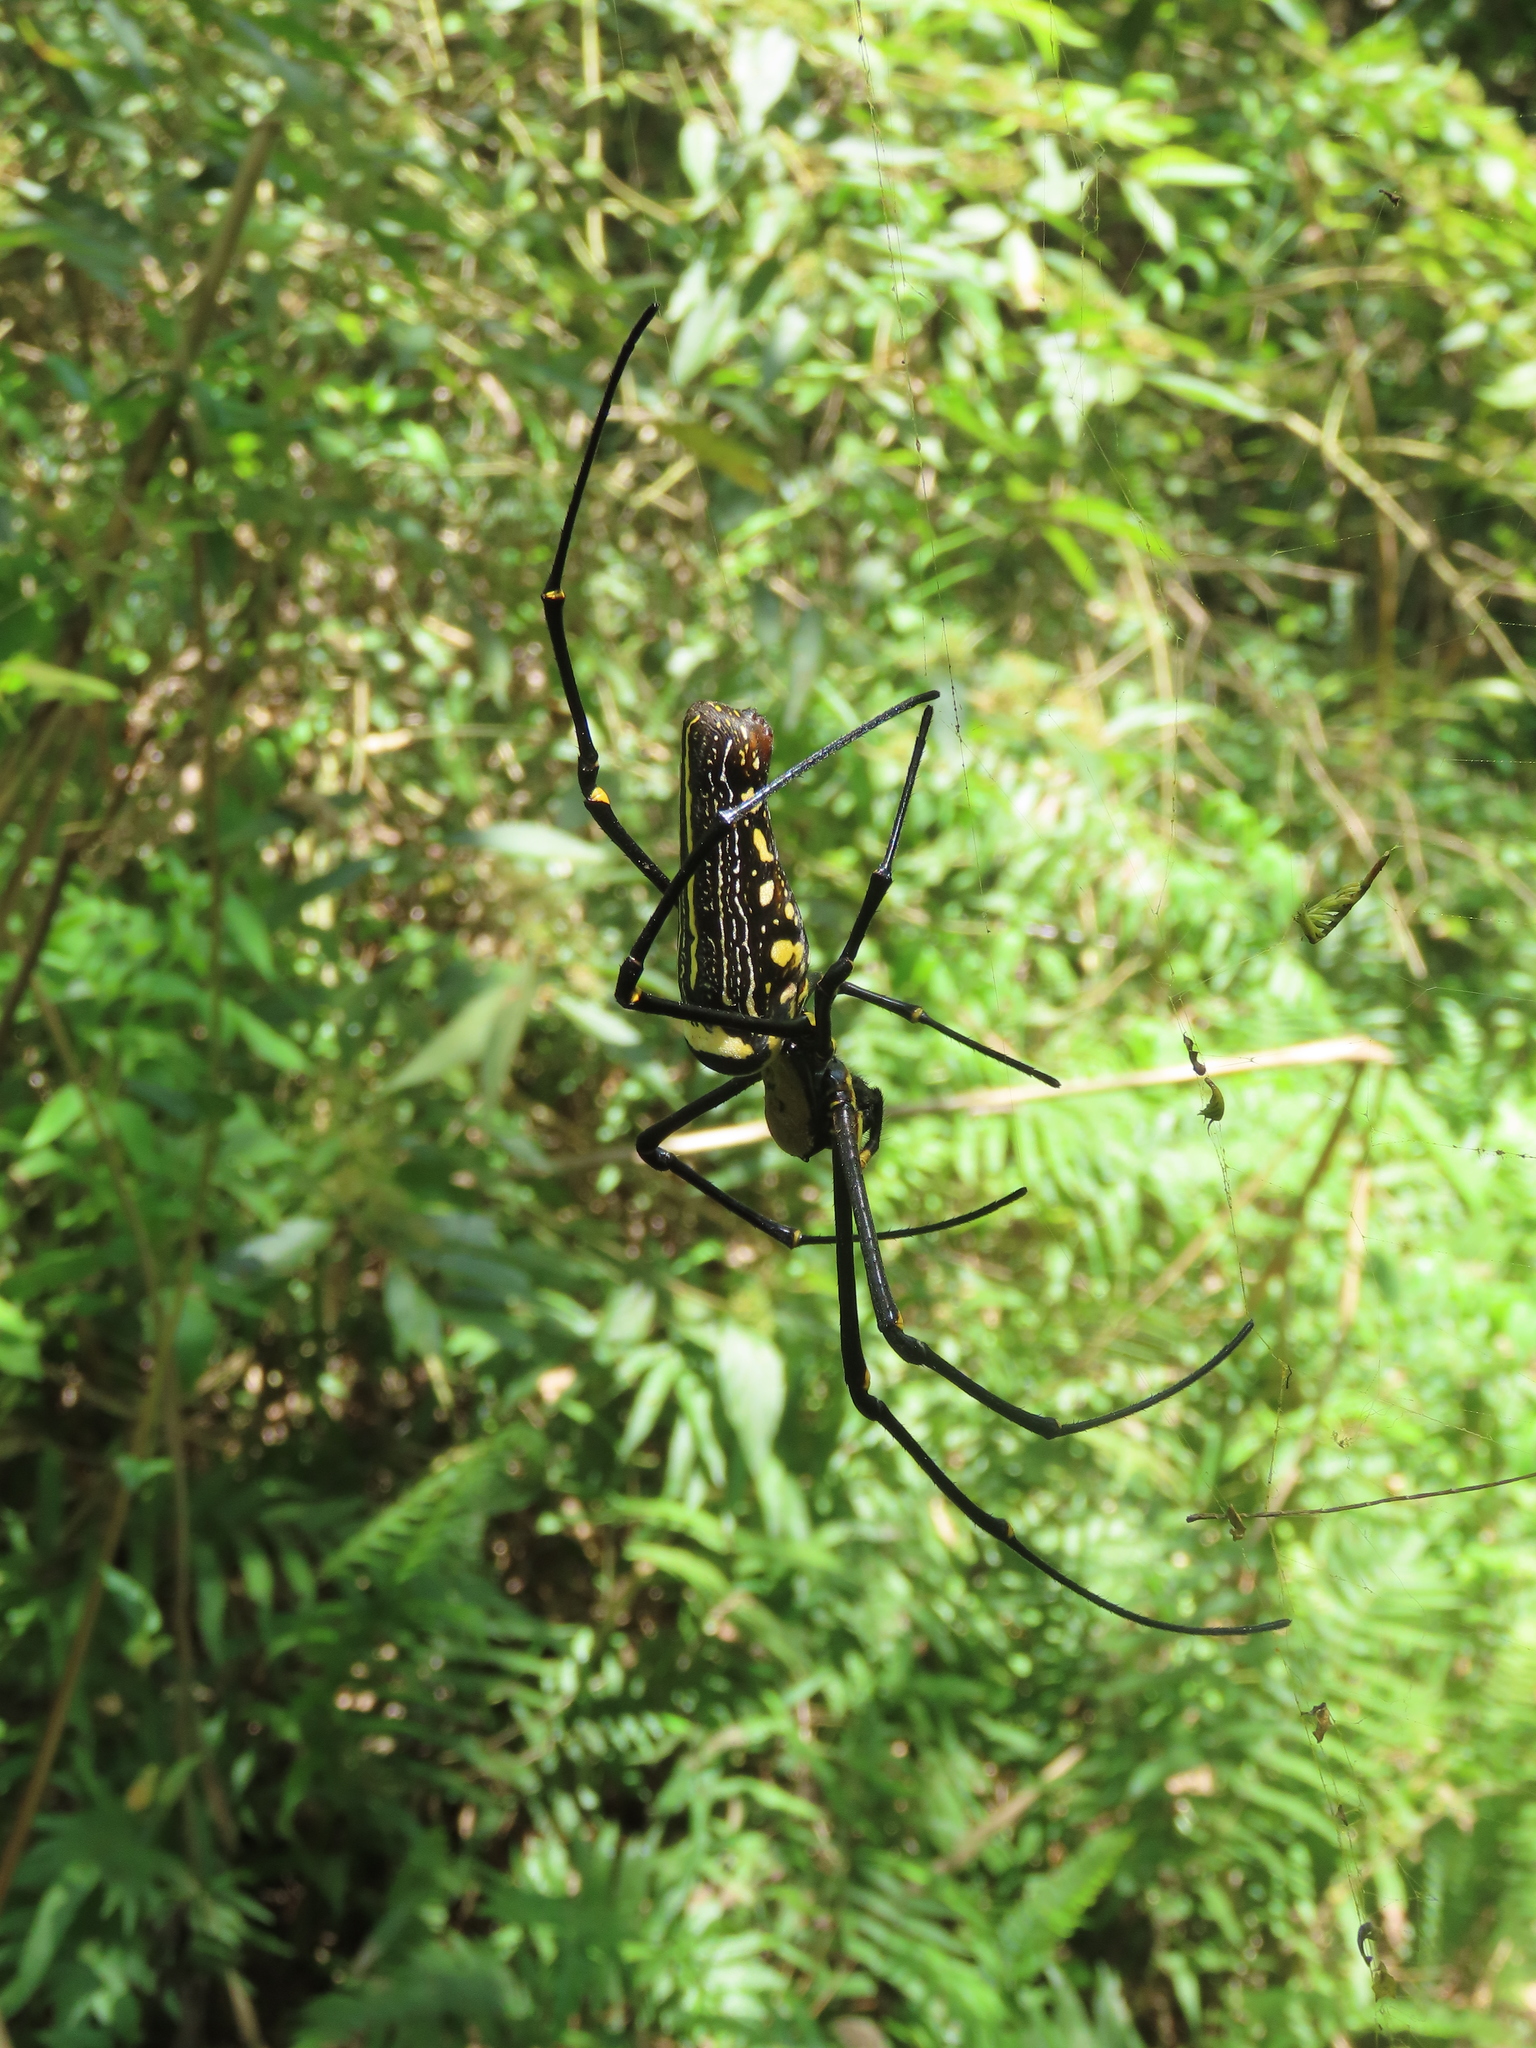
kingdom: Animalia
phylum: Arthropoda
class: Arachnida
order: Araneae
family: Araneidae
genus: Nephila
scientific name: Nephila pilipes
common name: Giant golden orb weaver
